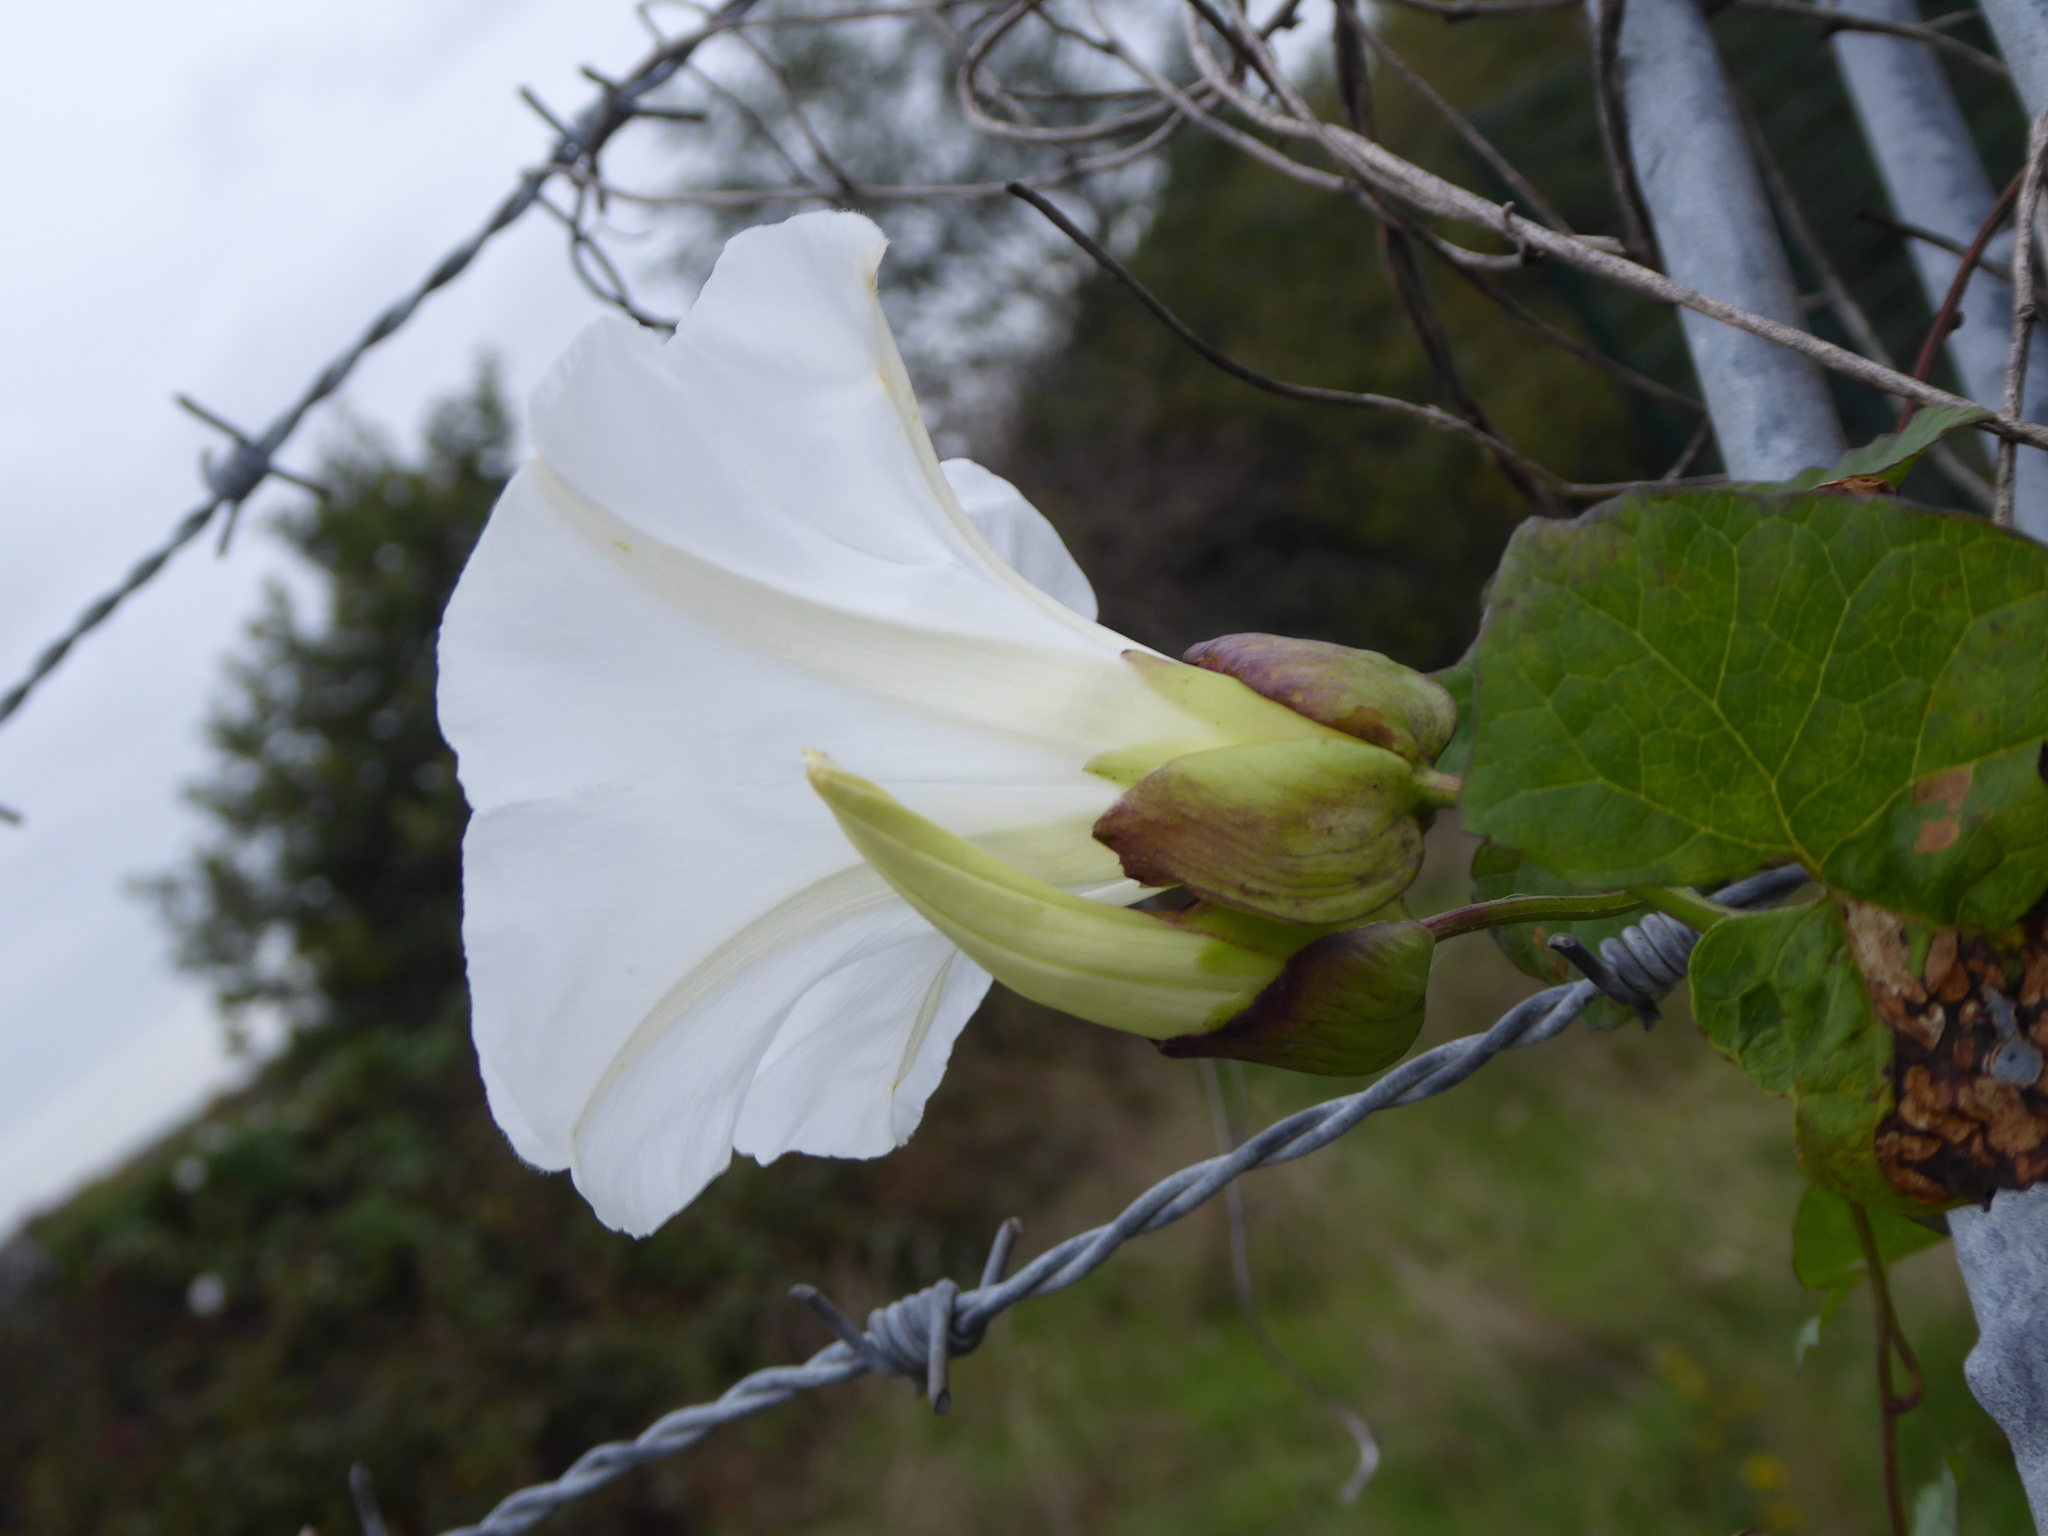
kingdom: Plantae
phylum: Tracheophyta
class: Magnoliopsida
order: Solanales
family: Convolvulaceae
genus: Calystegia
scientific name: Calystegia lucana
